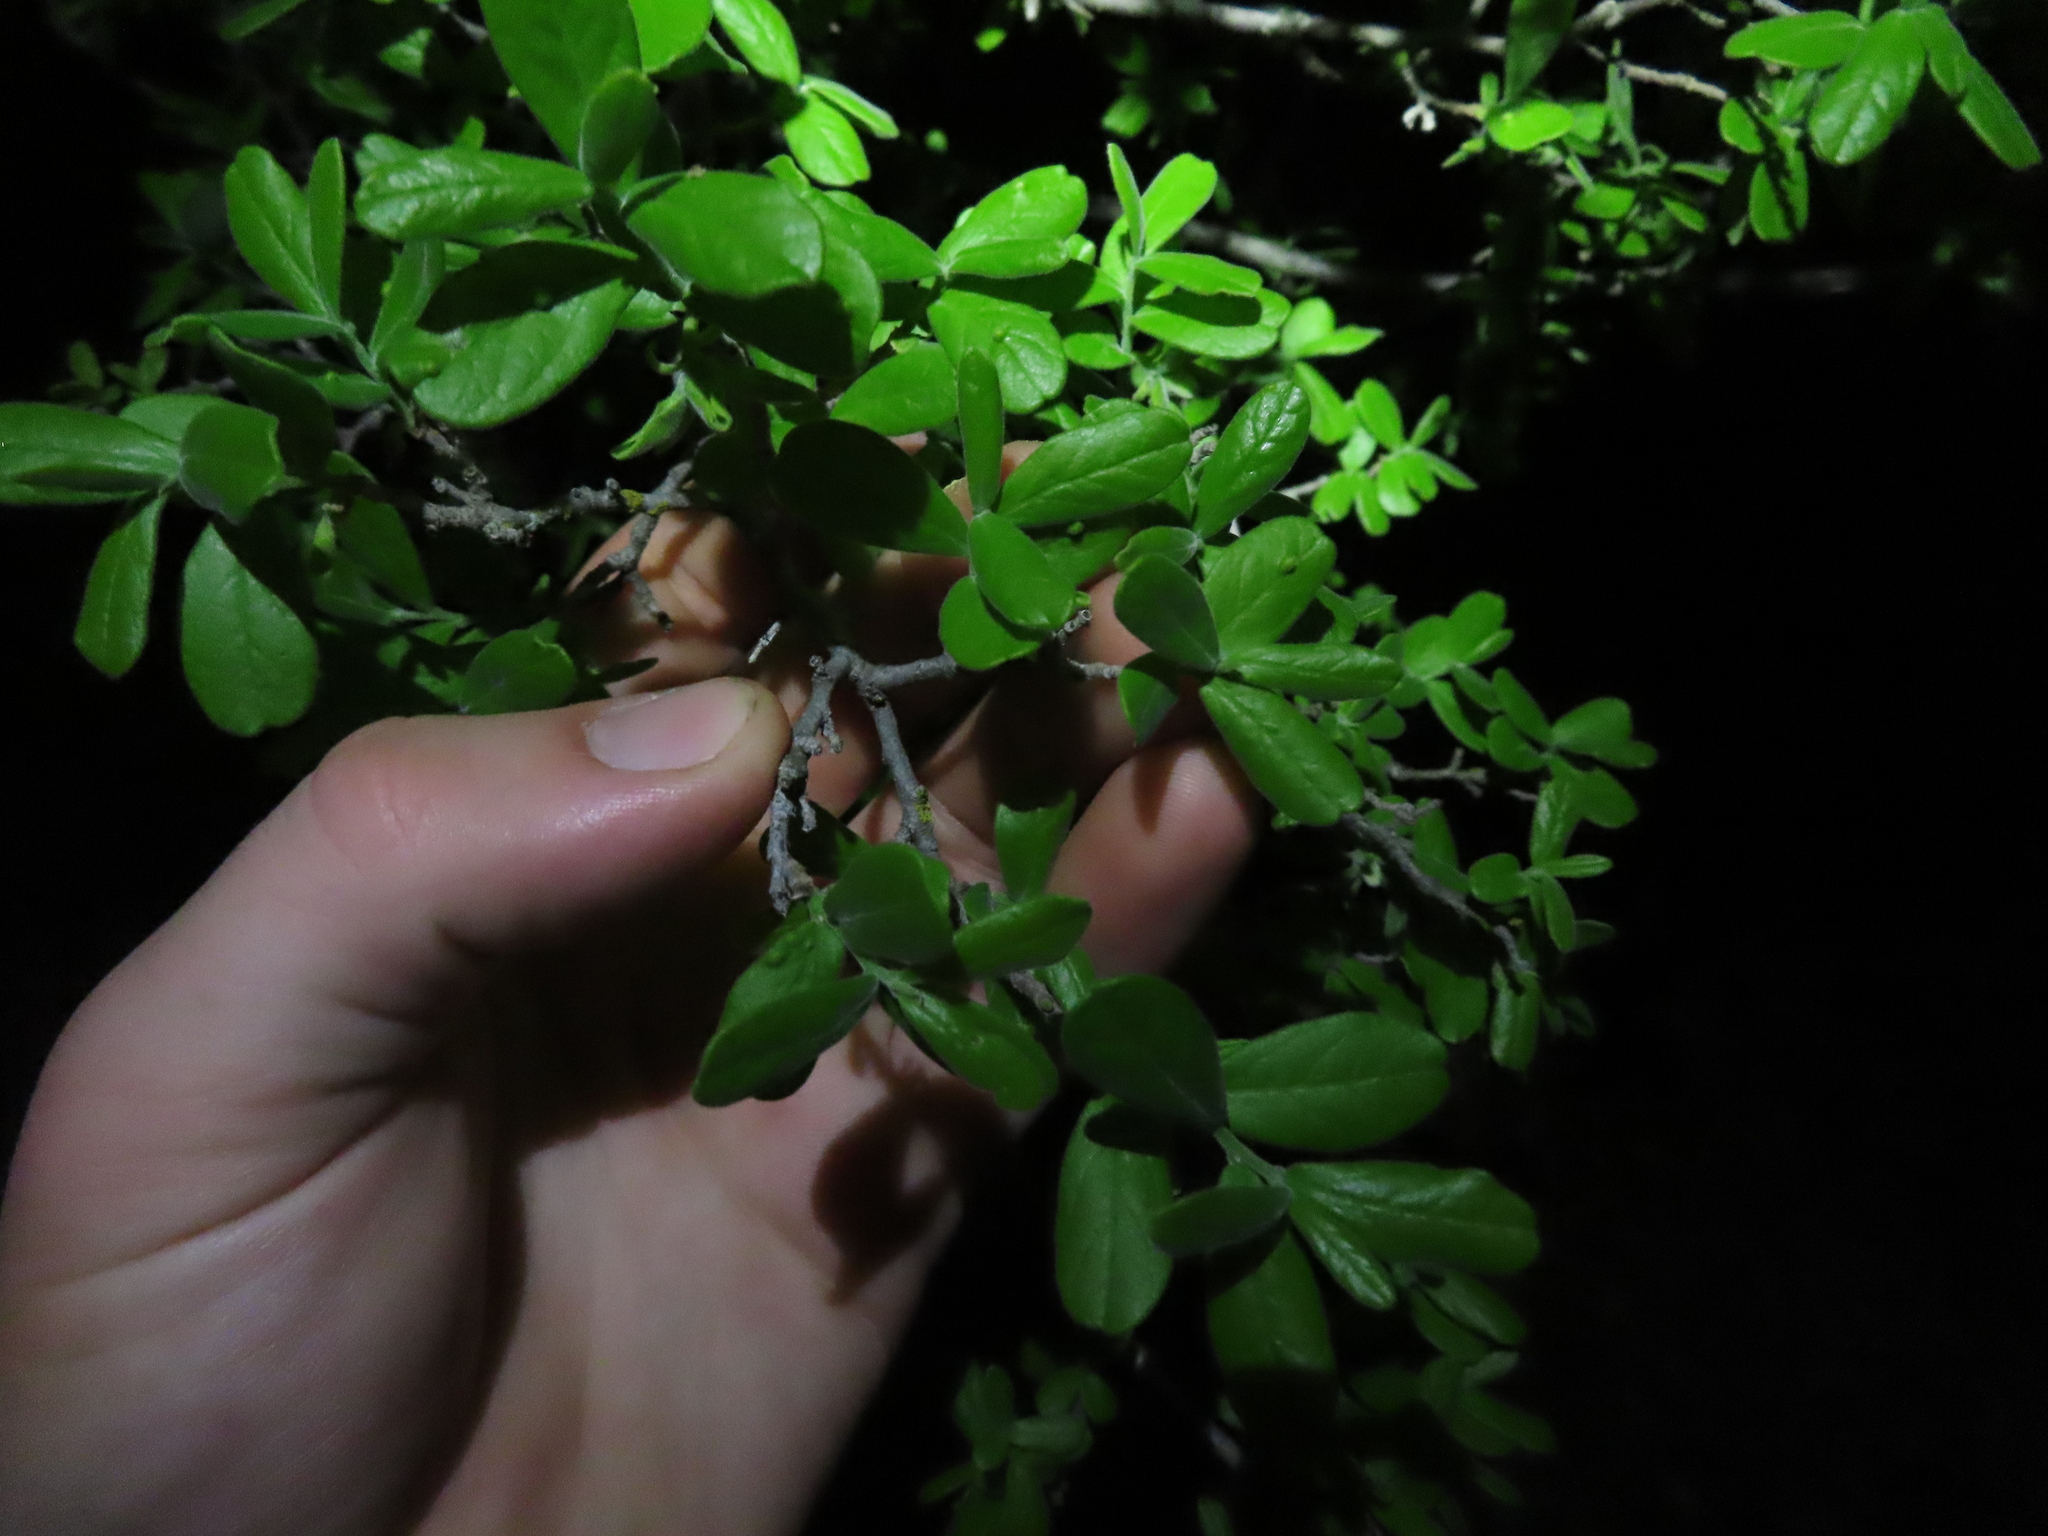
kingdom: Plantae
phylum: Tracheophyta
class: Magnoliopsida
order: Ericales
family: Ebenaceae
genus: Diospyros
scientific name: Diospyros texana
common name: Texas persimmon
